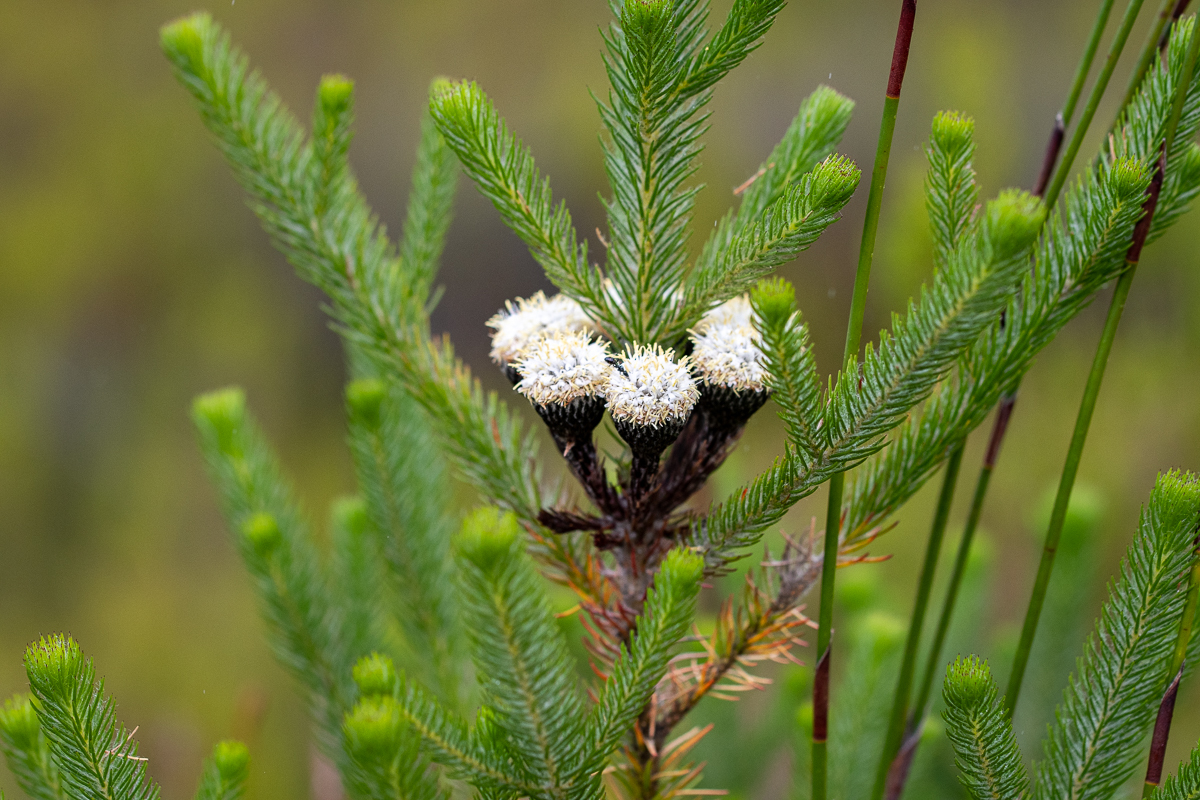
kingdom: Plantae
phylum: Tracheophyta
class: Magnoliopsida
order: Bruniales
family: Bruniaceae
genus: Berzelia
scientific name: Berzelia albiflora
